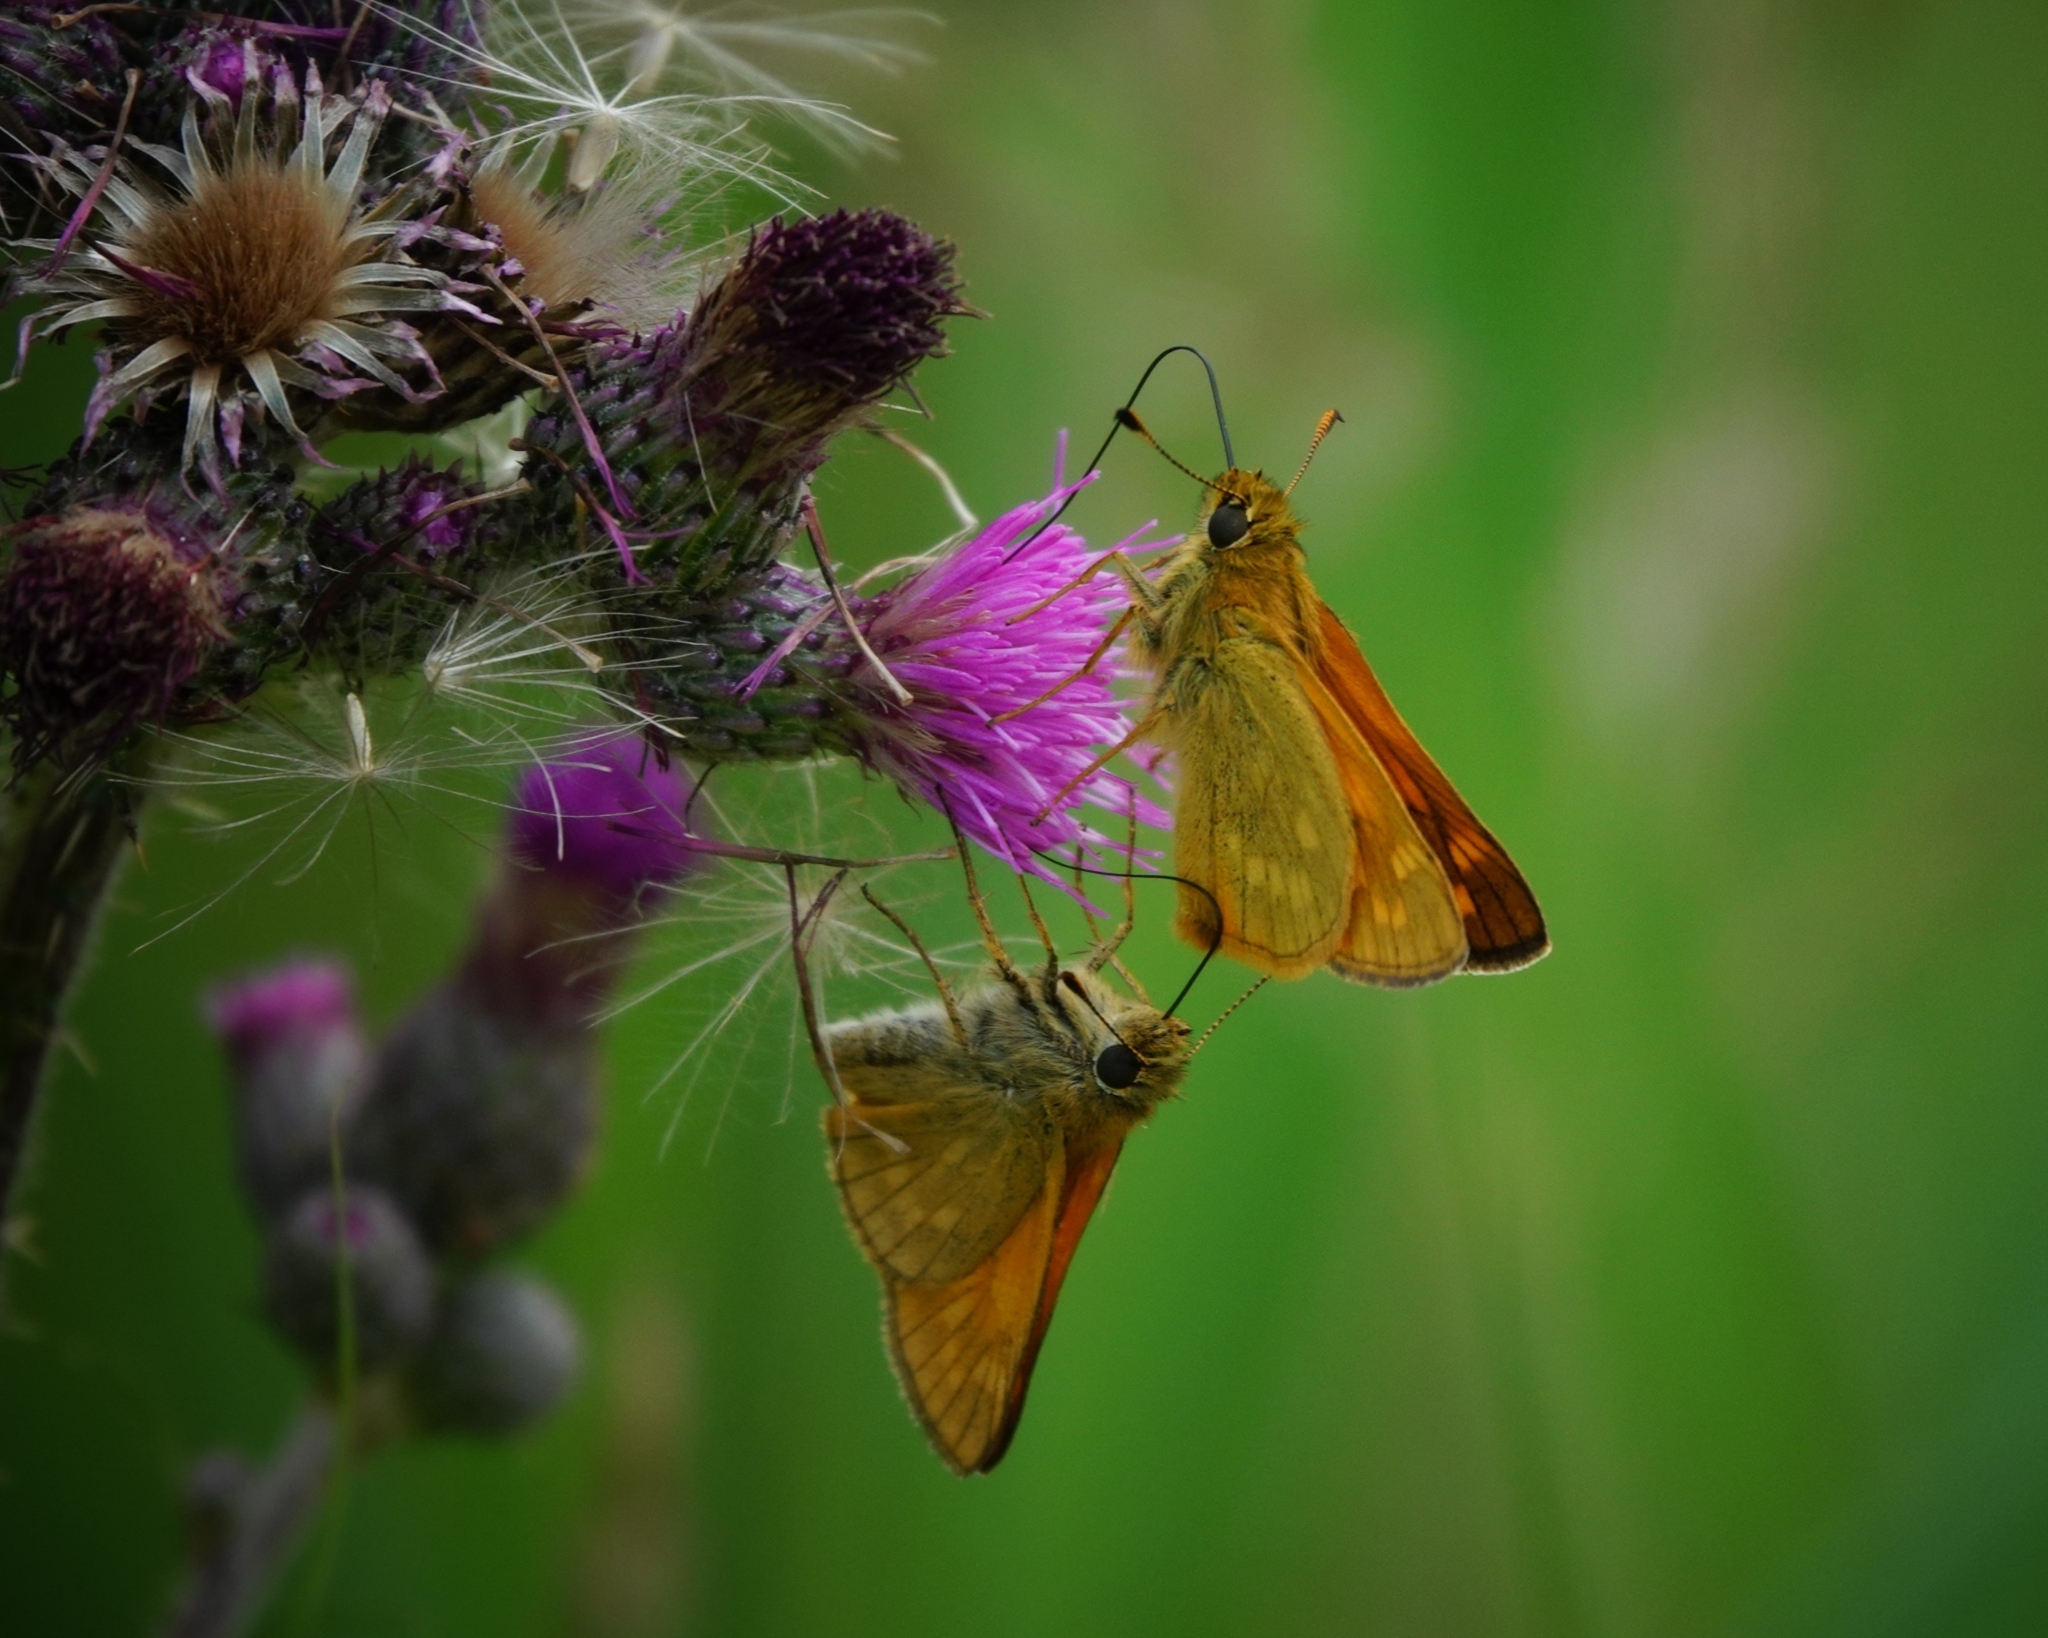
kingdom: Animalia
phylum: Arthropoda
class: Insecta
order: Lepidoptera
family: Hesperiidae
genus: Ochlodes
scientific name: Ochlodes venata
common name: Large skipper
